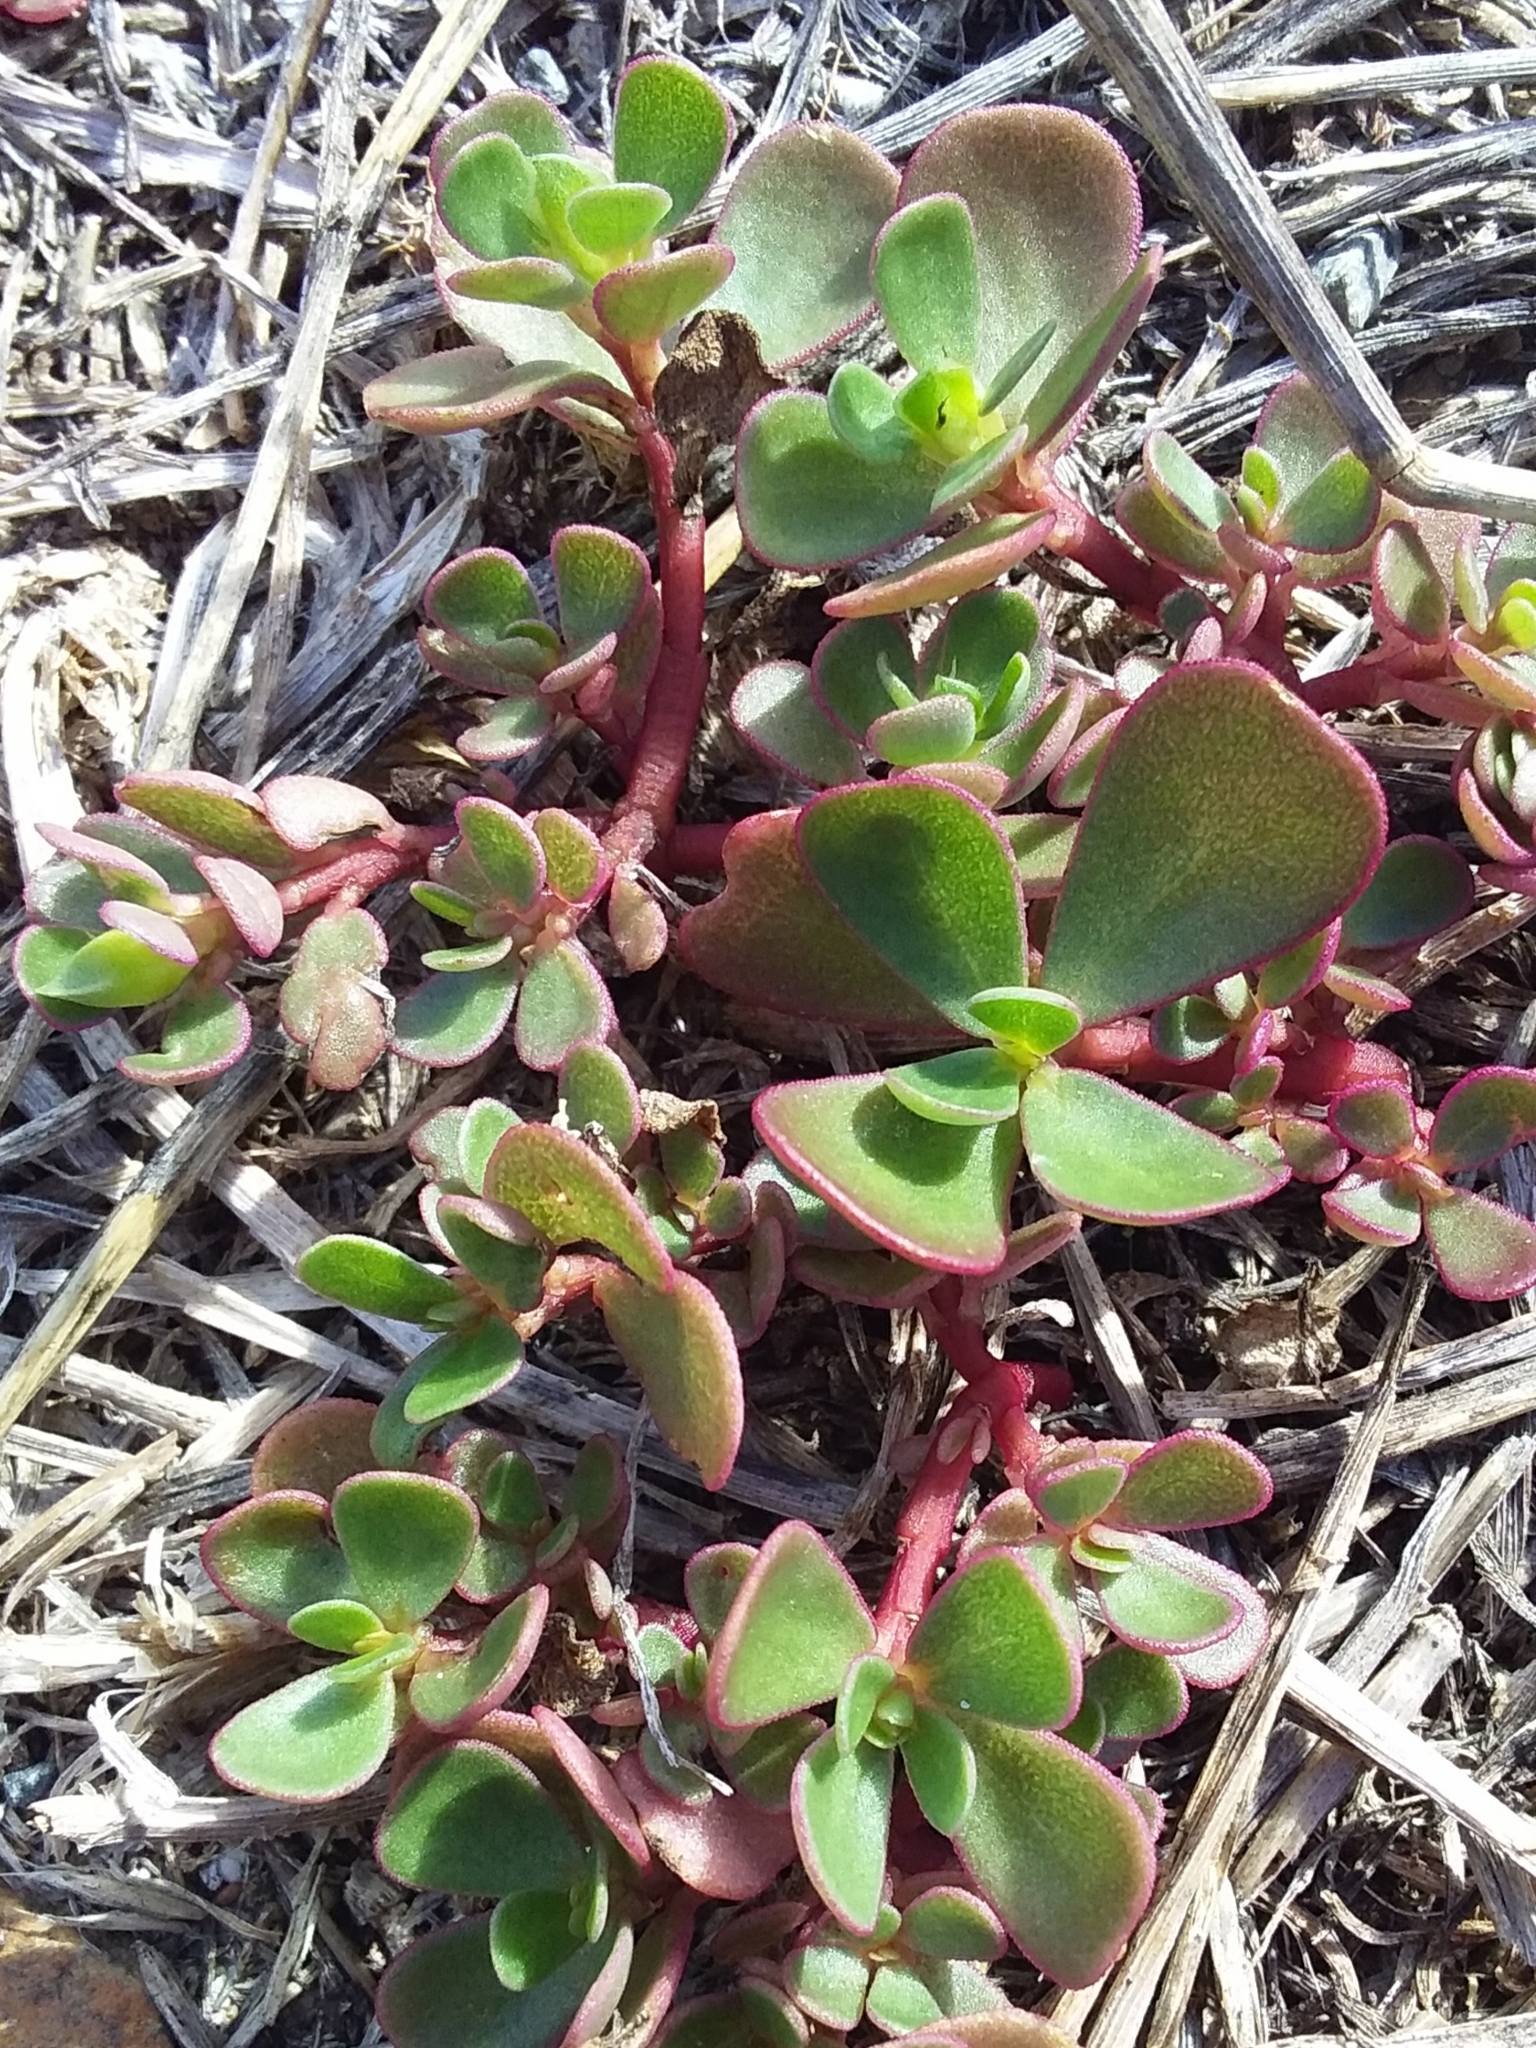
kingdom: Plantae
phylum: Tracheophyta
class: Magnoliopsida
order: Caryophyllales
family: Portulacaceae
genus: Portulaca
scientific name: Portulaca oleracea
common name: Common purslane
